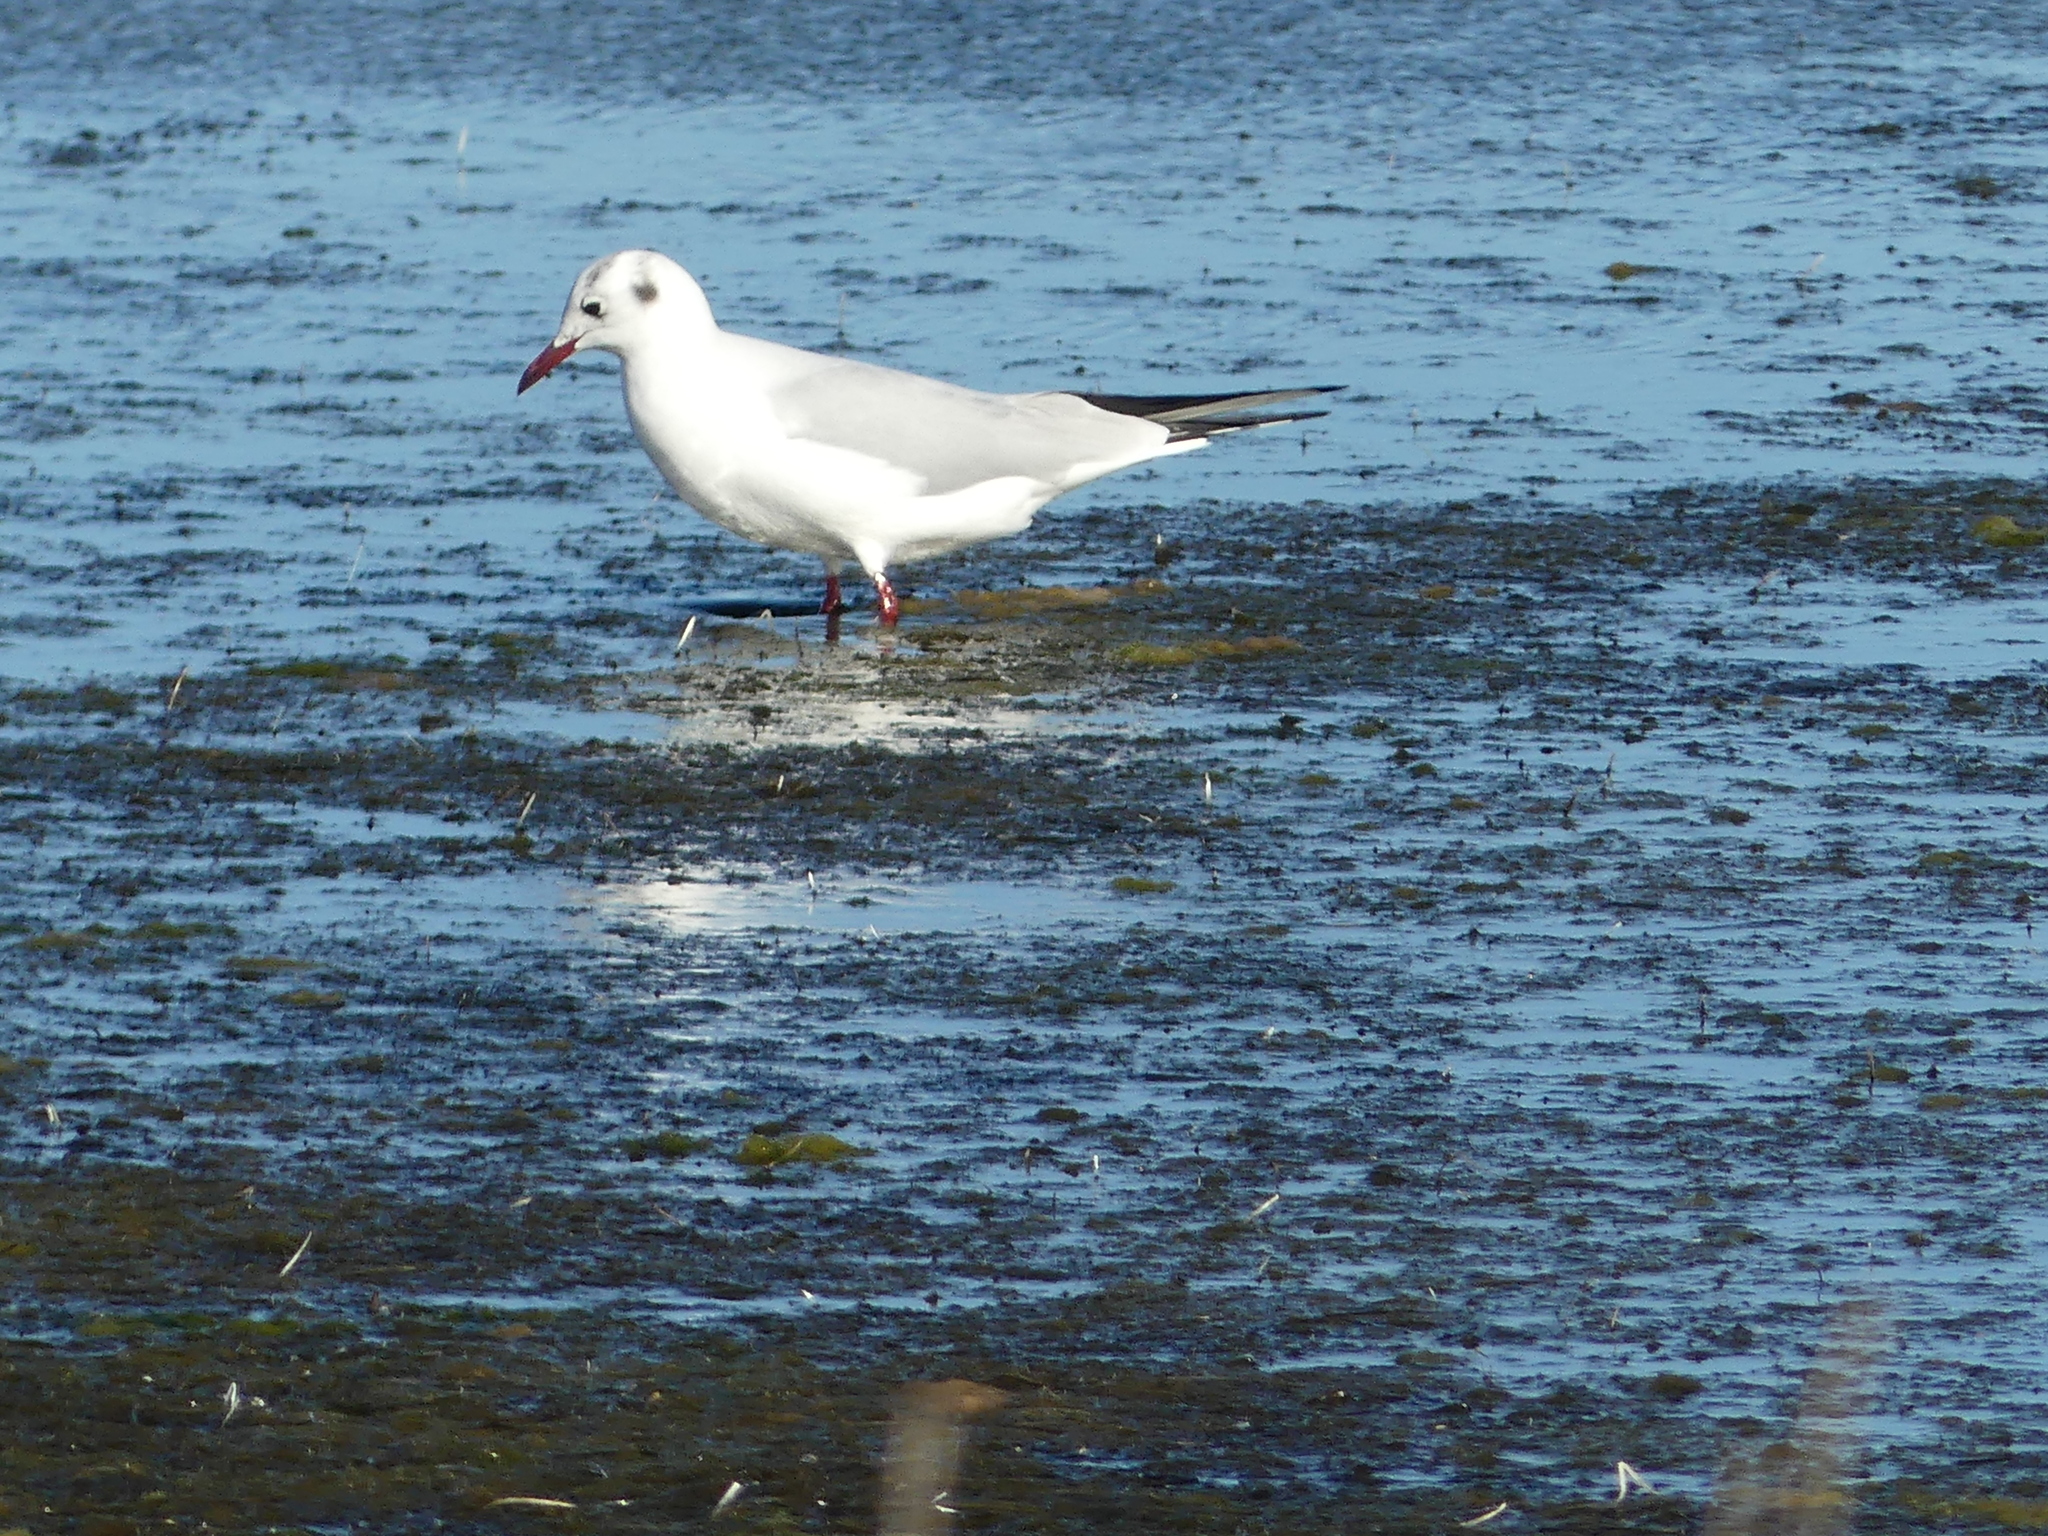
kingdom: Animalia
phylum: Chordata
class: Aves
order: Charadriiformes
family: Laridae
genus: Chroicocephalus
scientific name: Chroicocephalus ridibundus
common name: Black-headed gull
